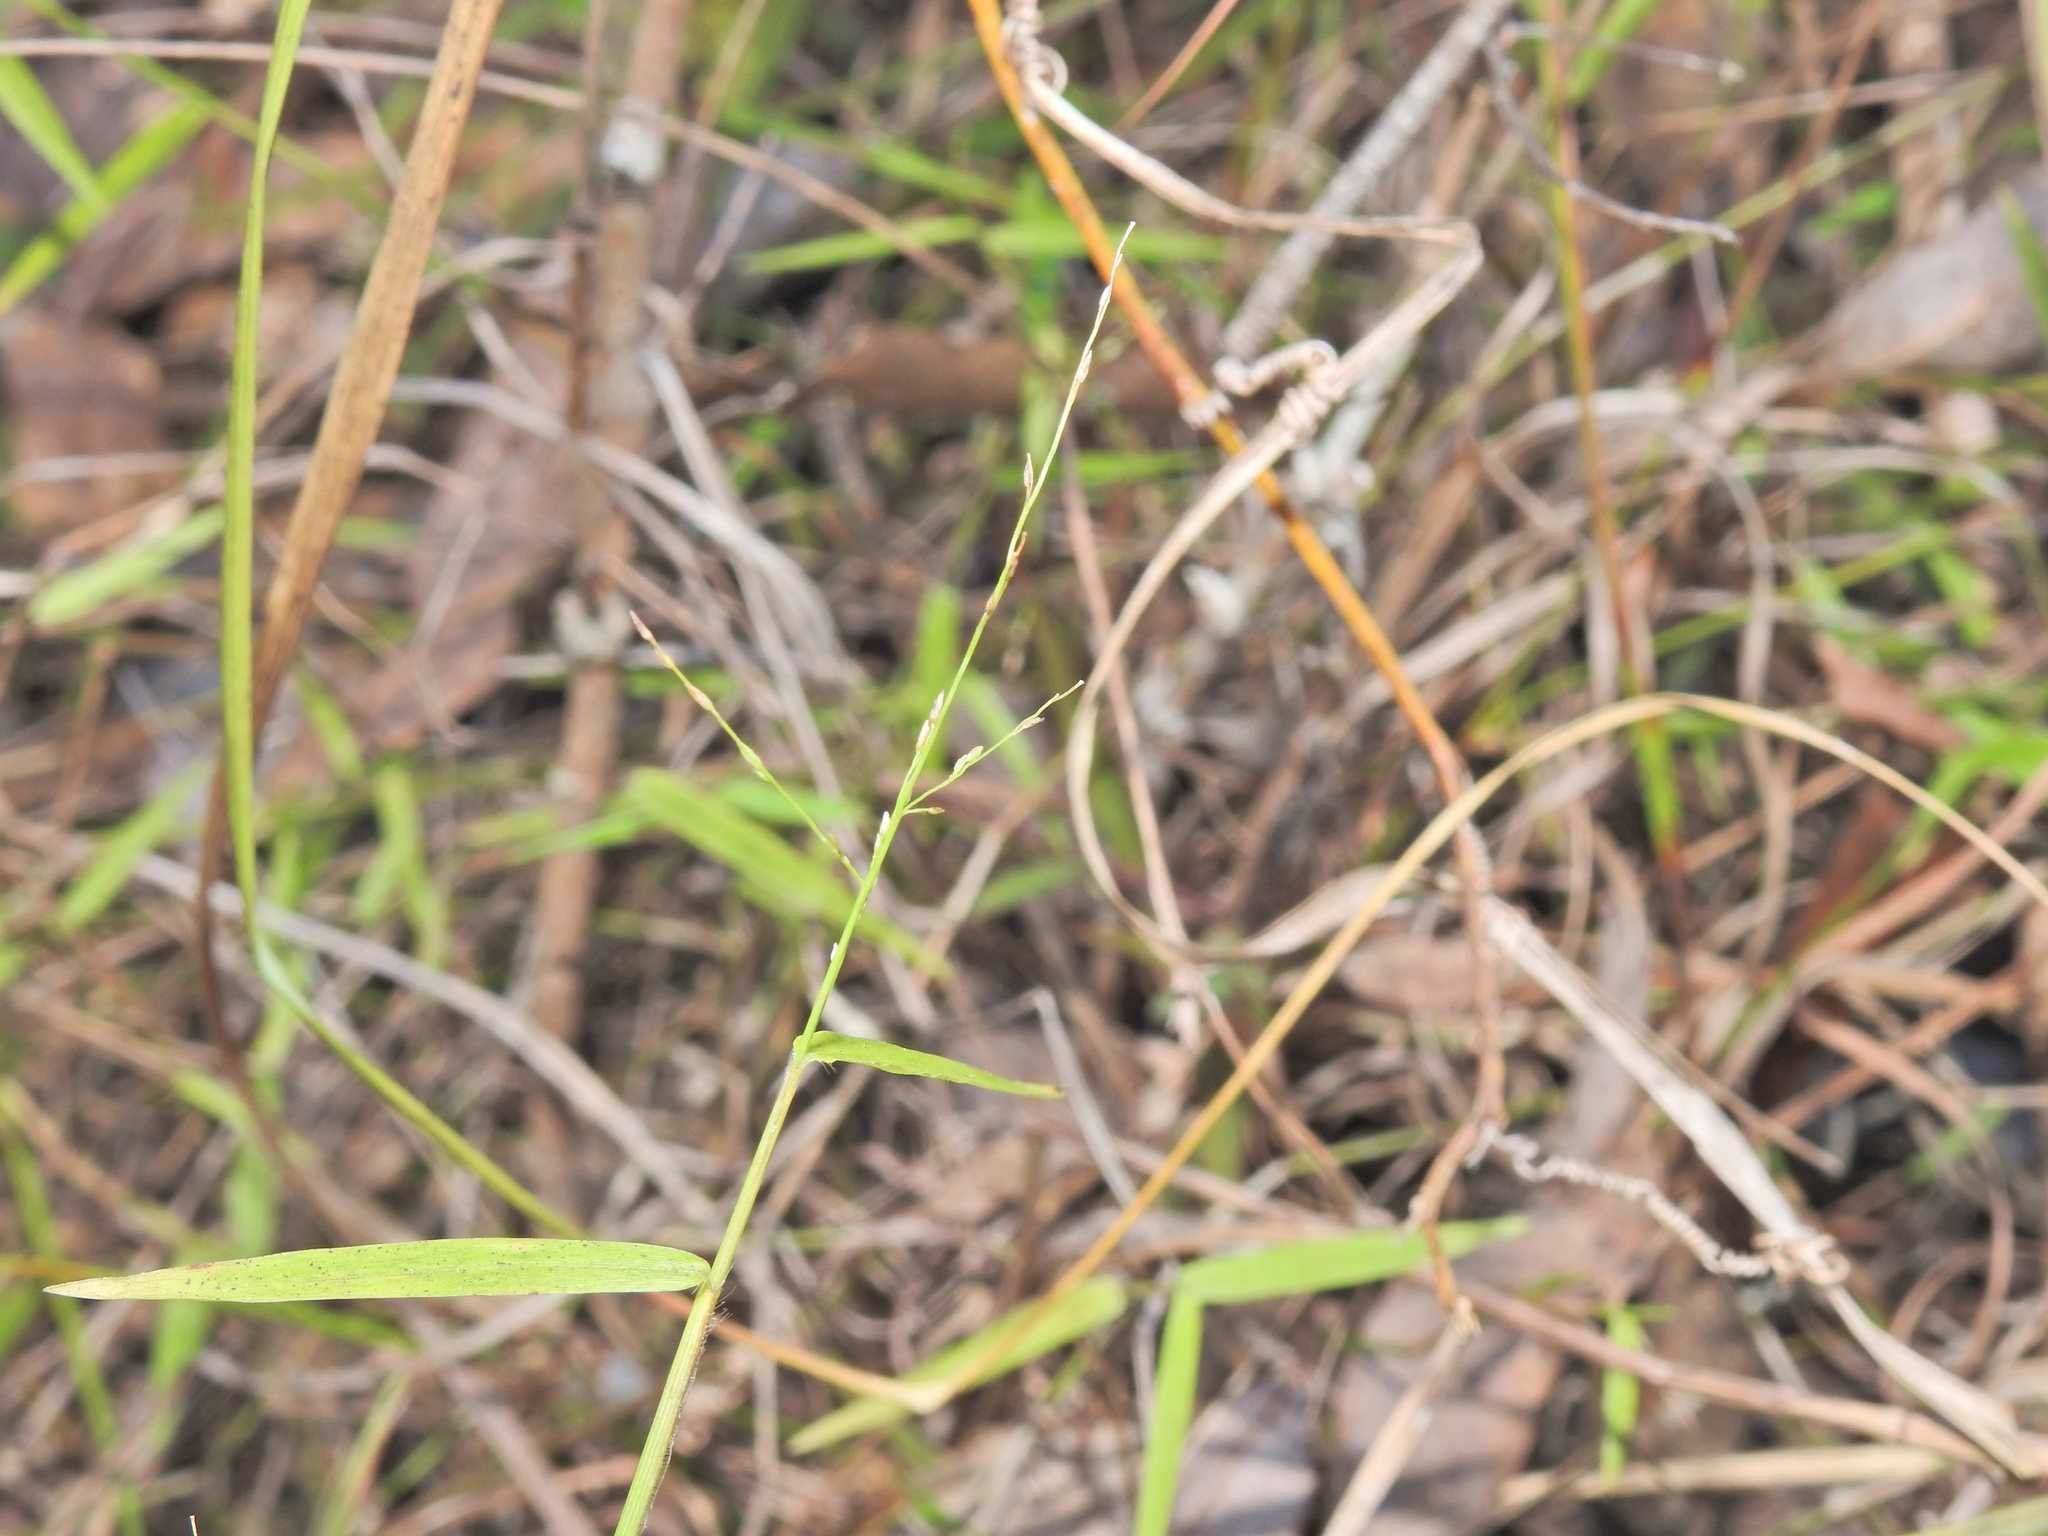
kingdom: Plantae
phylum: Tracheophyta
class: Liliopsida
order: Poales
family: Poaceae
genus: Ottochloa
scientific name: Ottochloa gracillima
